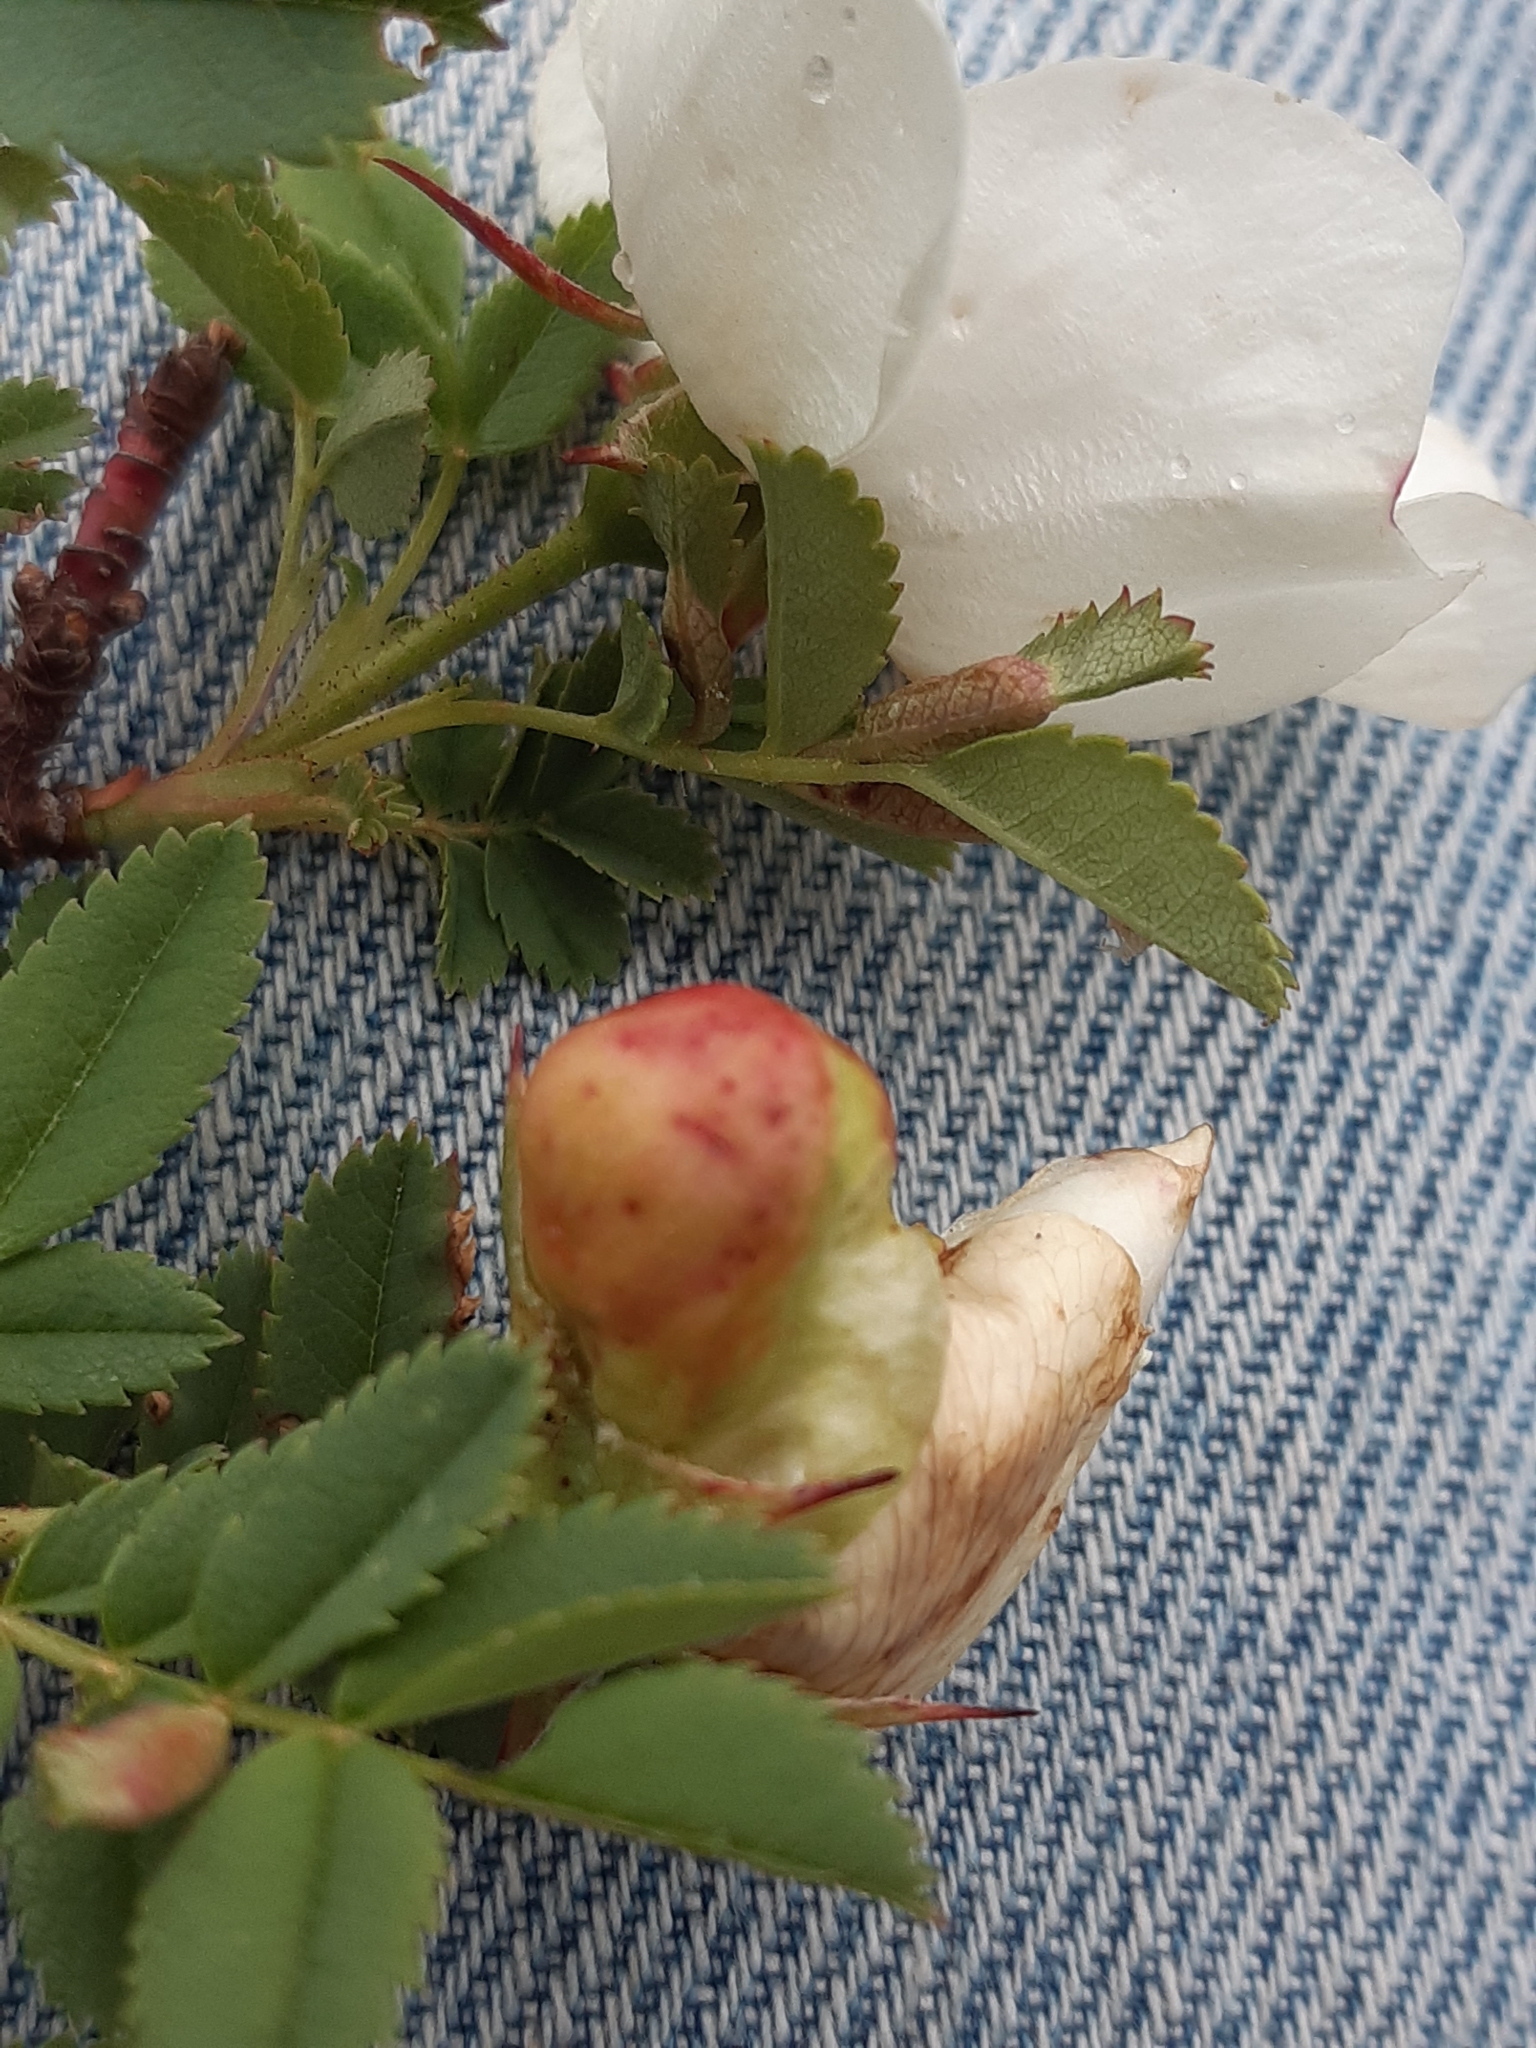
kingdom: Animalia
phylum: Arthropoda
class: Insecta
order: Hymenoptera
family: Cynipidae
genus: Diplolepis
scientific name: Diplolepis spinosissimae
